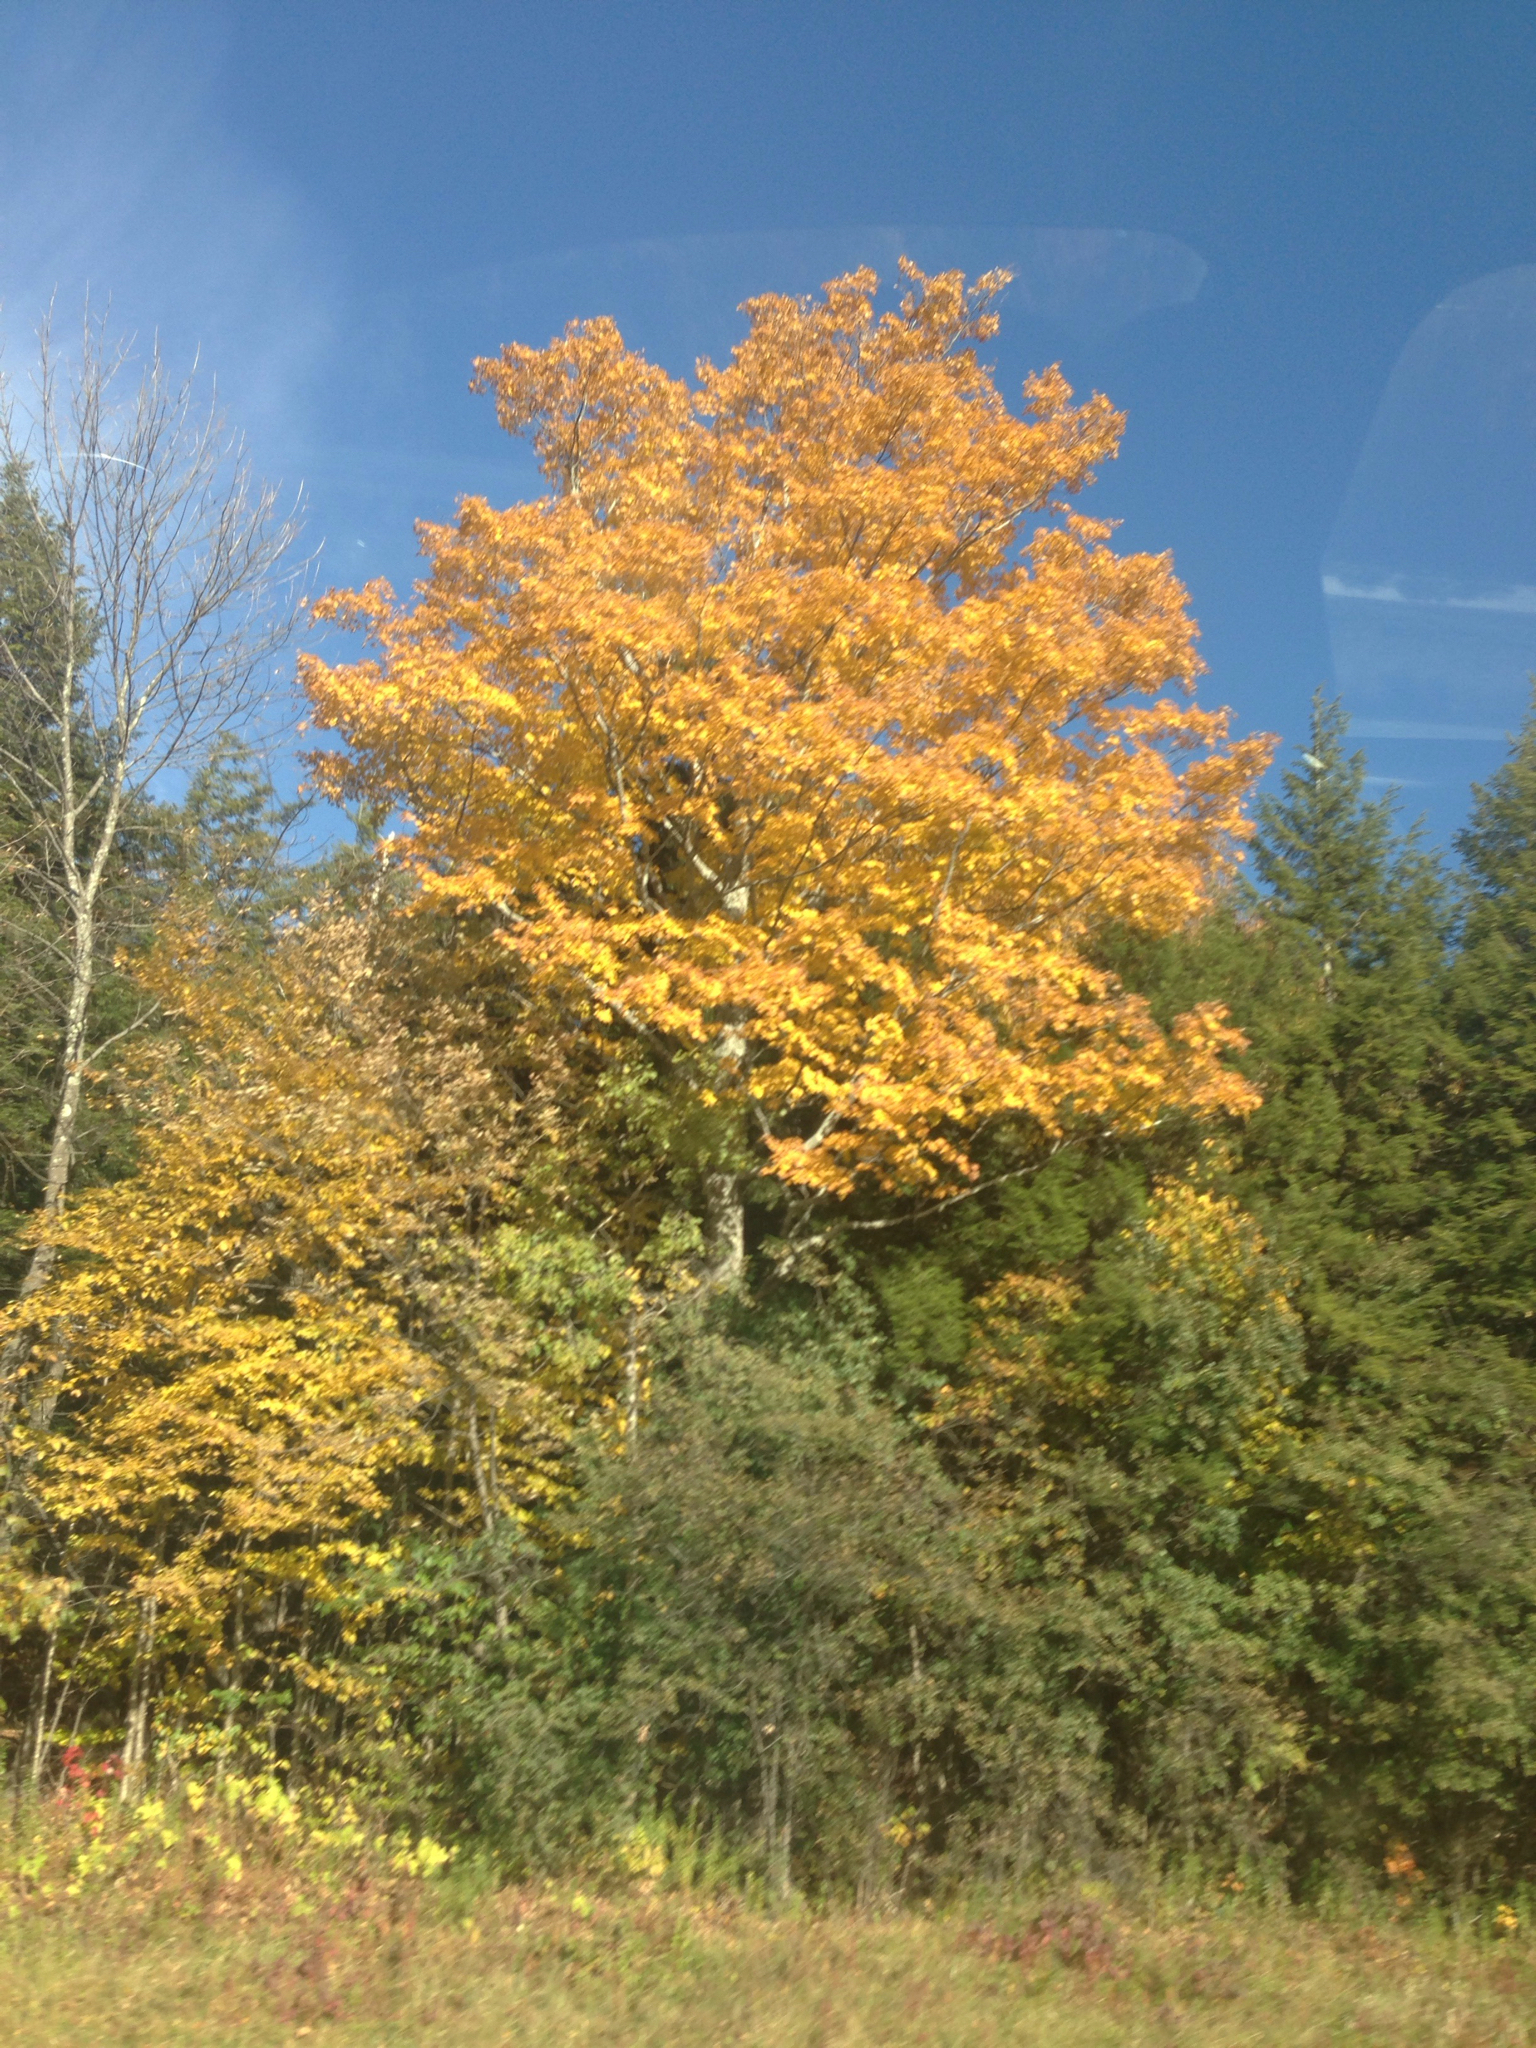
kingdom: Plantae
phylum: Tracheophyta
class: Magnoliopsida
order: Sapindales
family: Sapindaceae
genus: Acer
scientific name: Acer saccharum
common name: Sugar maple
